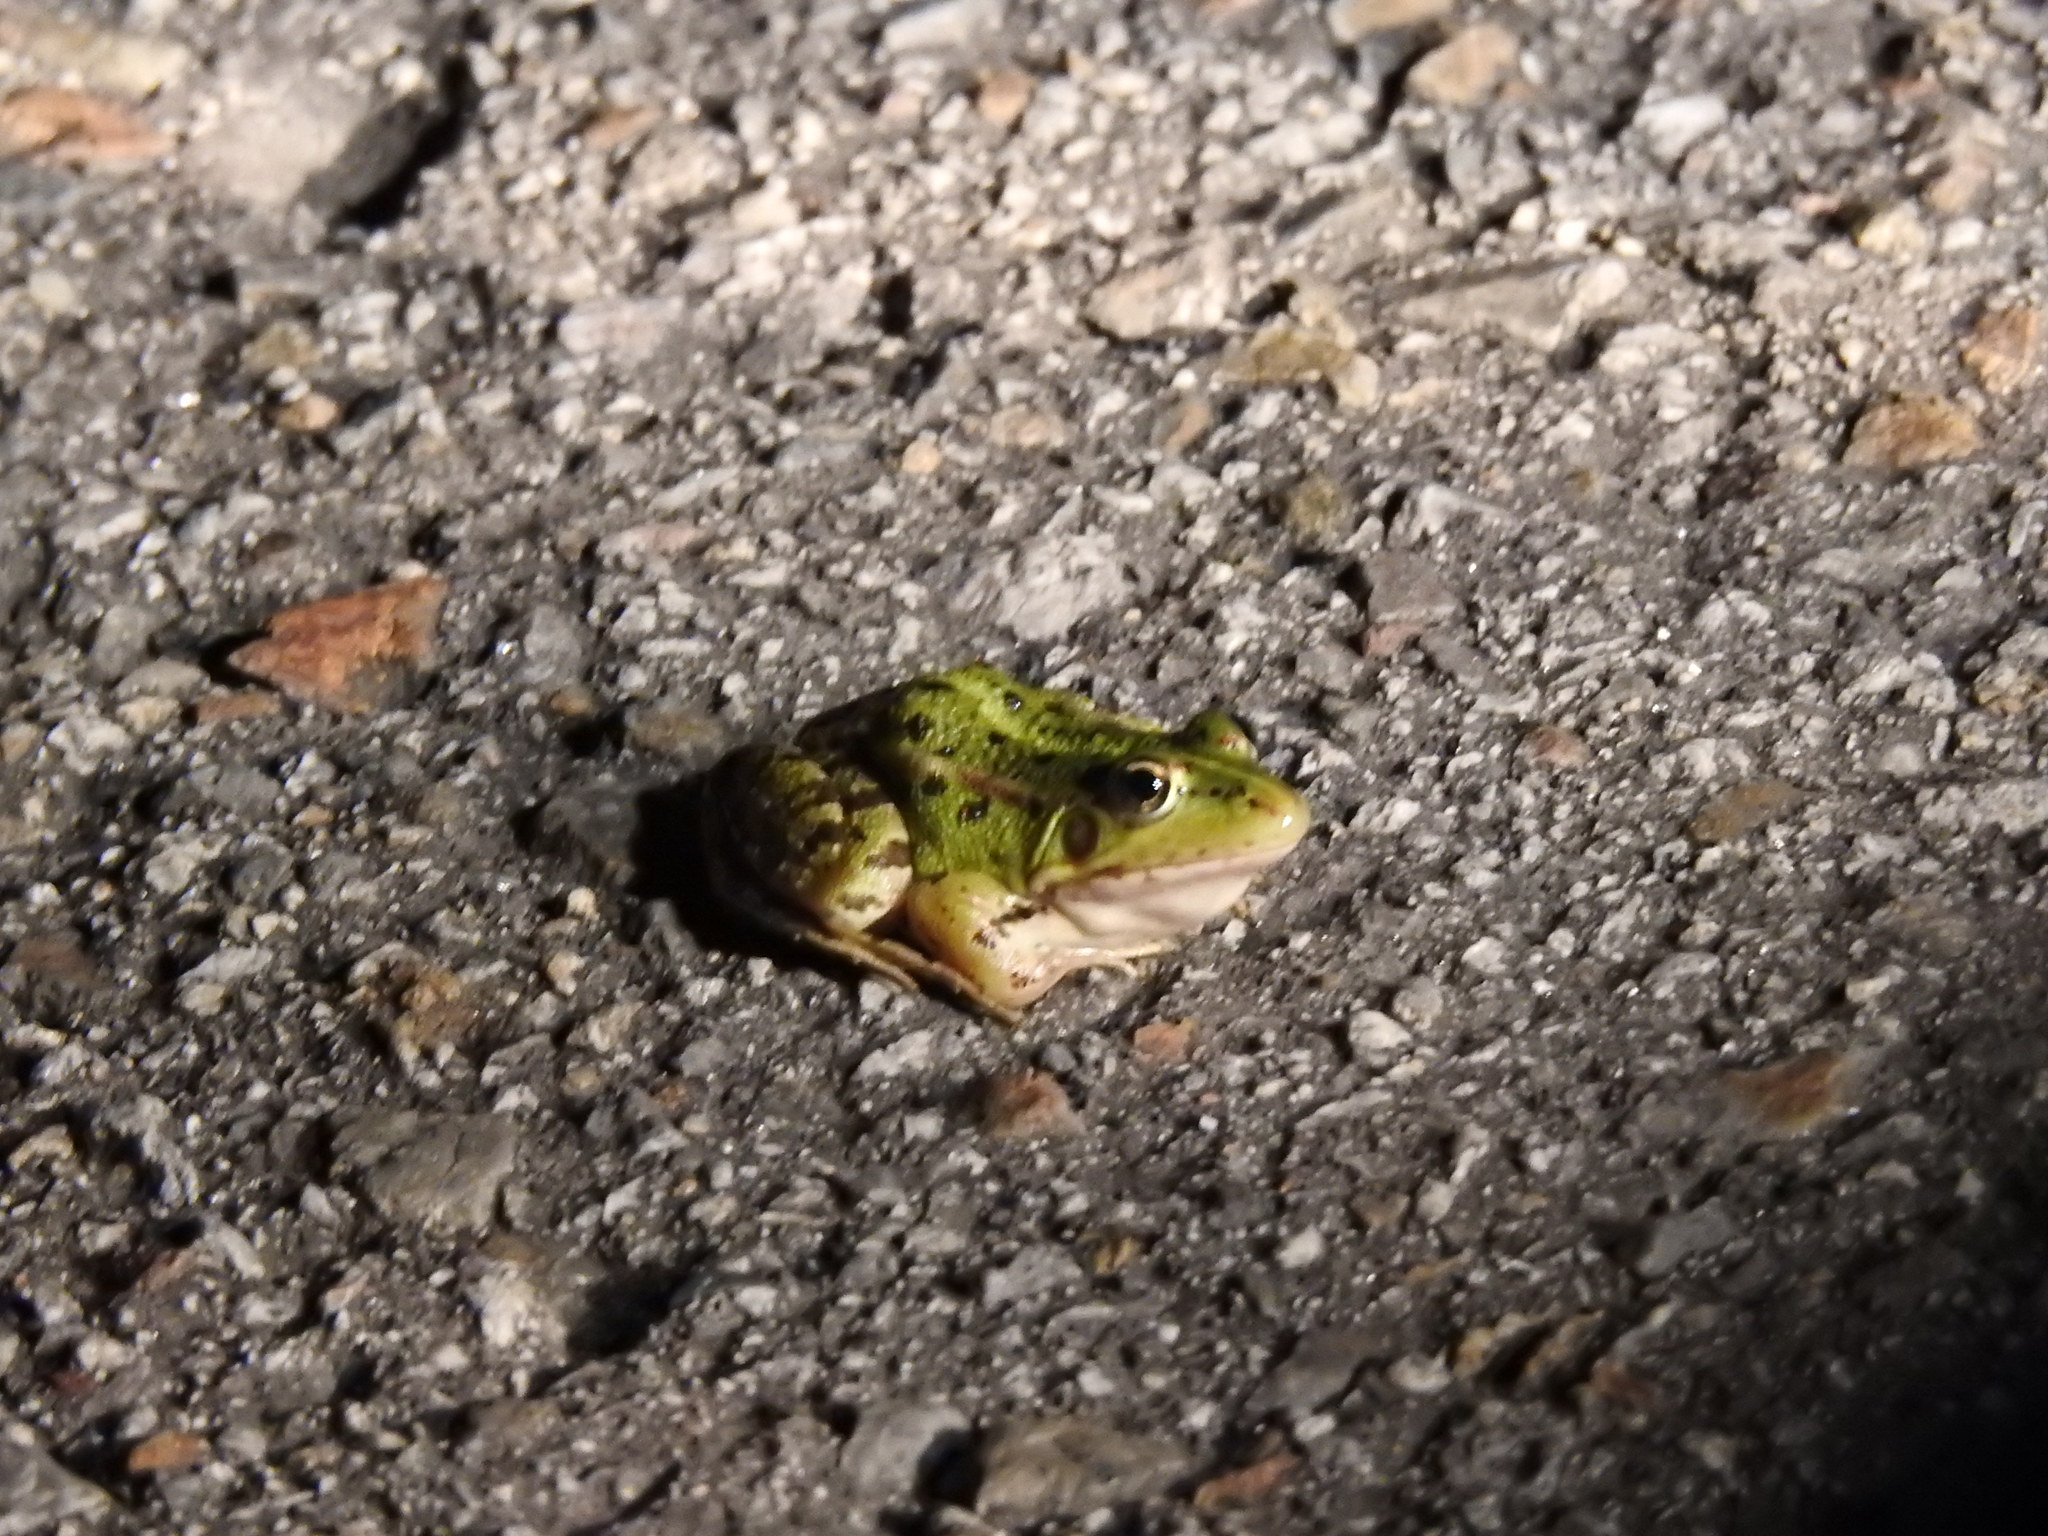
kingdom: Animalia
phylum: Chordata
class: Amphibia
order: Anura
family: Ranidae
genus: Pelophylax
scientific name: Pelophylax perezi
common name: Perez's frog
